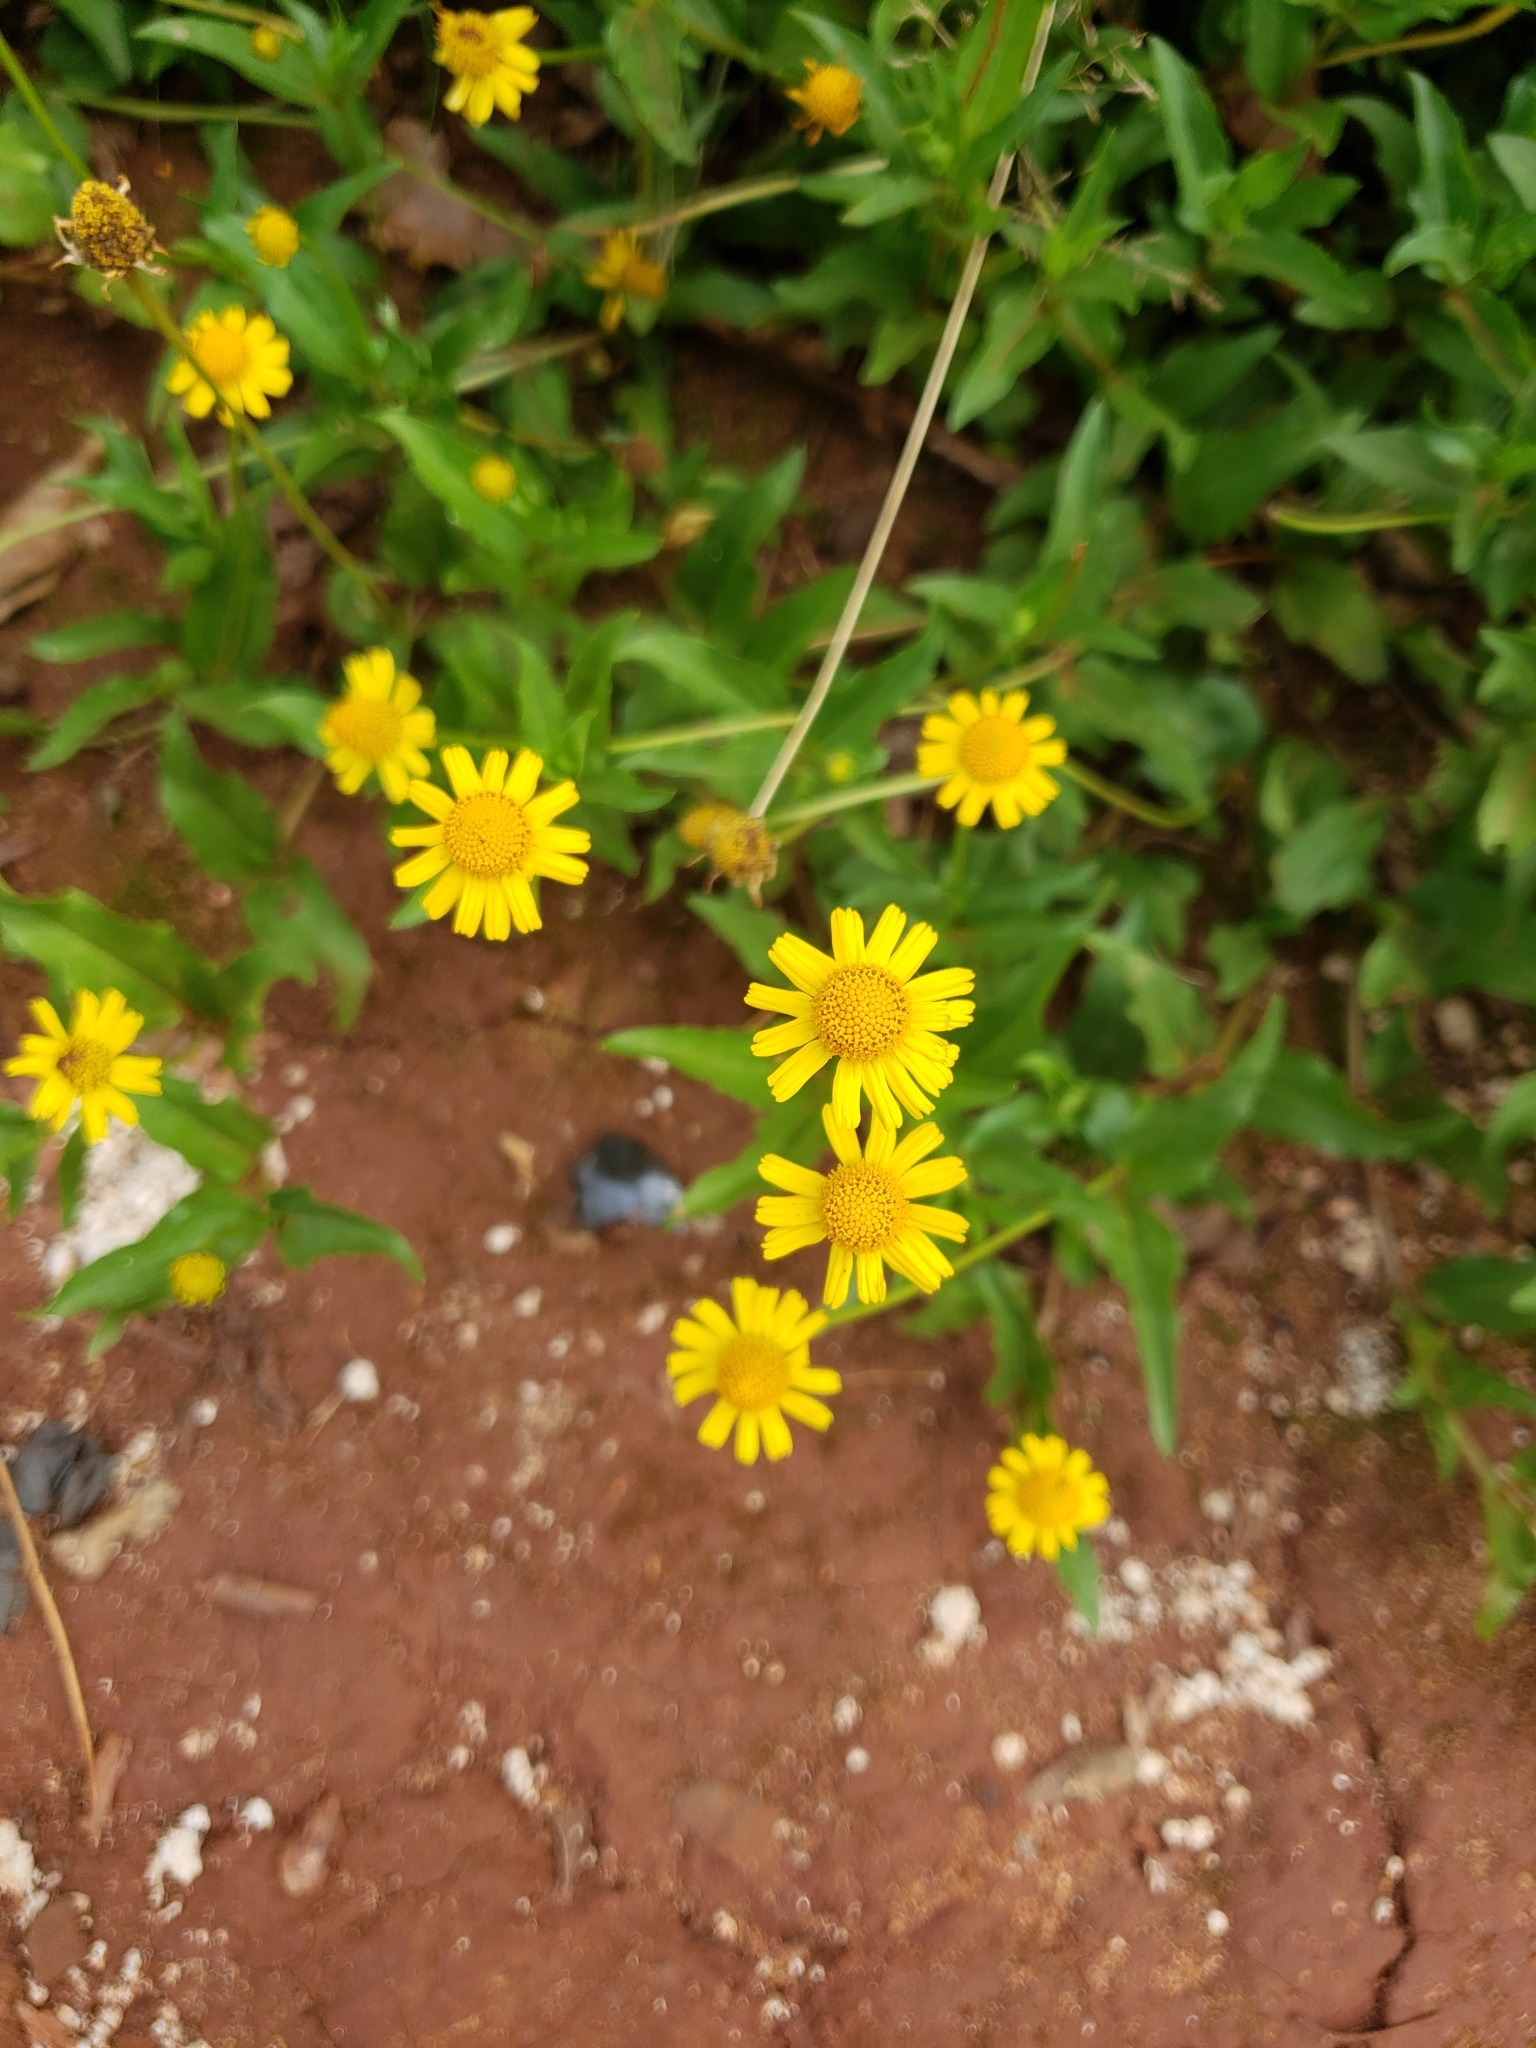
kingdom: Plantae
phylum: Tracheophyta
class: Magnoliopsida
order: Asterales
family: Asteraceae
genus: Acmella
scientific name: Acmella decumbens
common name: Creeping spotflower
